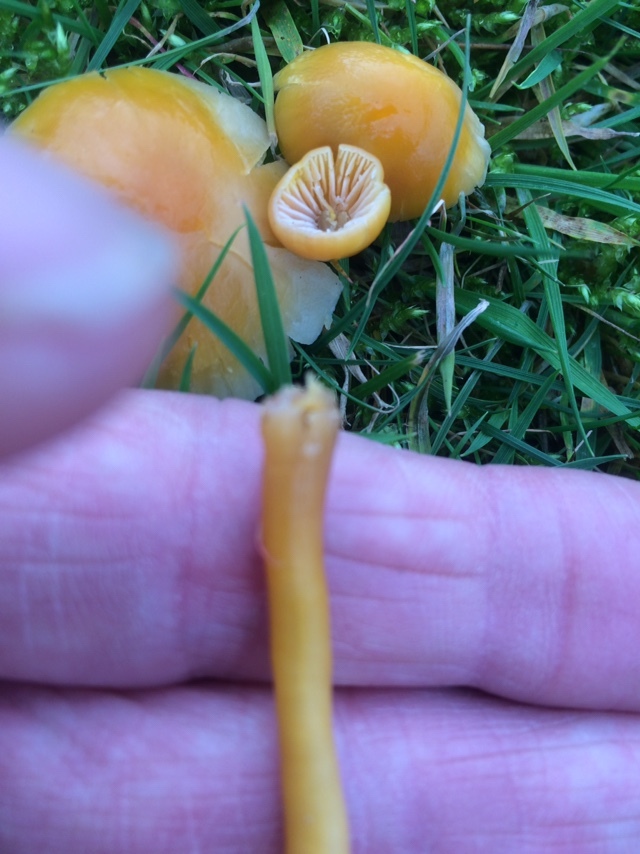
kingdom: Fungi
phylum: Basidiomycota
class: Agaricomycetes
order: Agaricales
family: Hygrophoraceae
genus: Gliophorus
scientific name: Gliophorus psittacinus
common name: Parrot wax-cap
